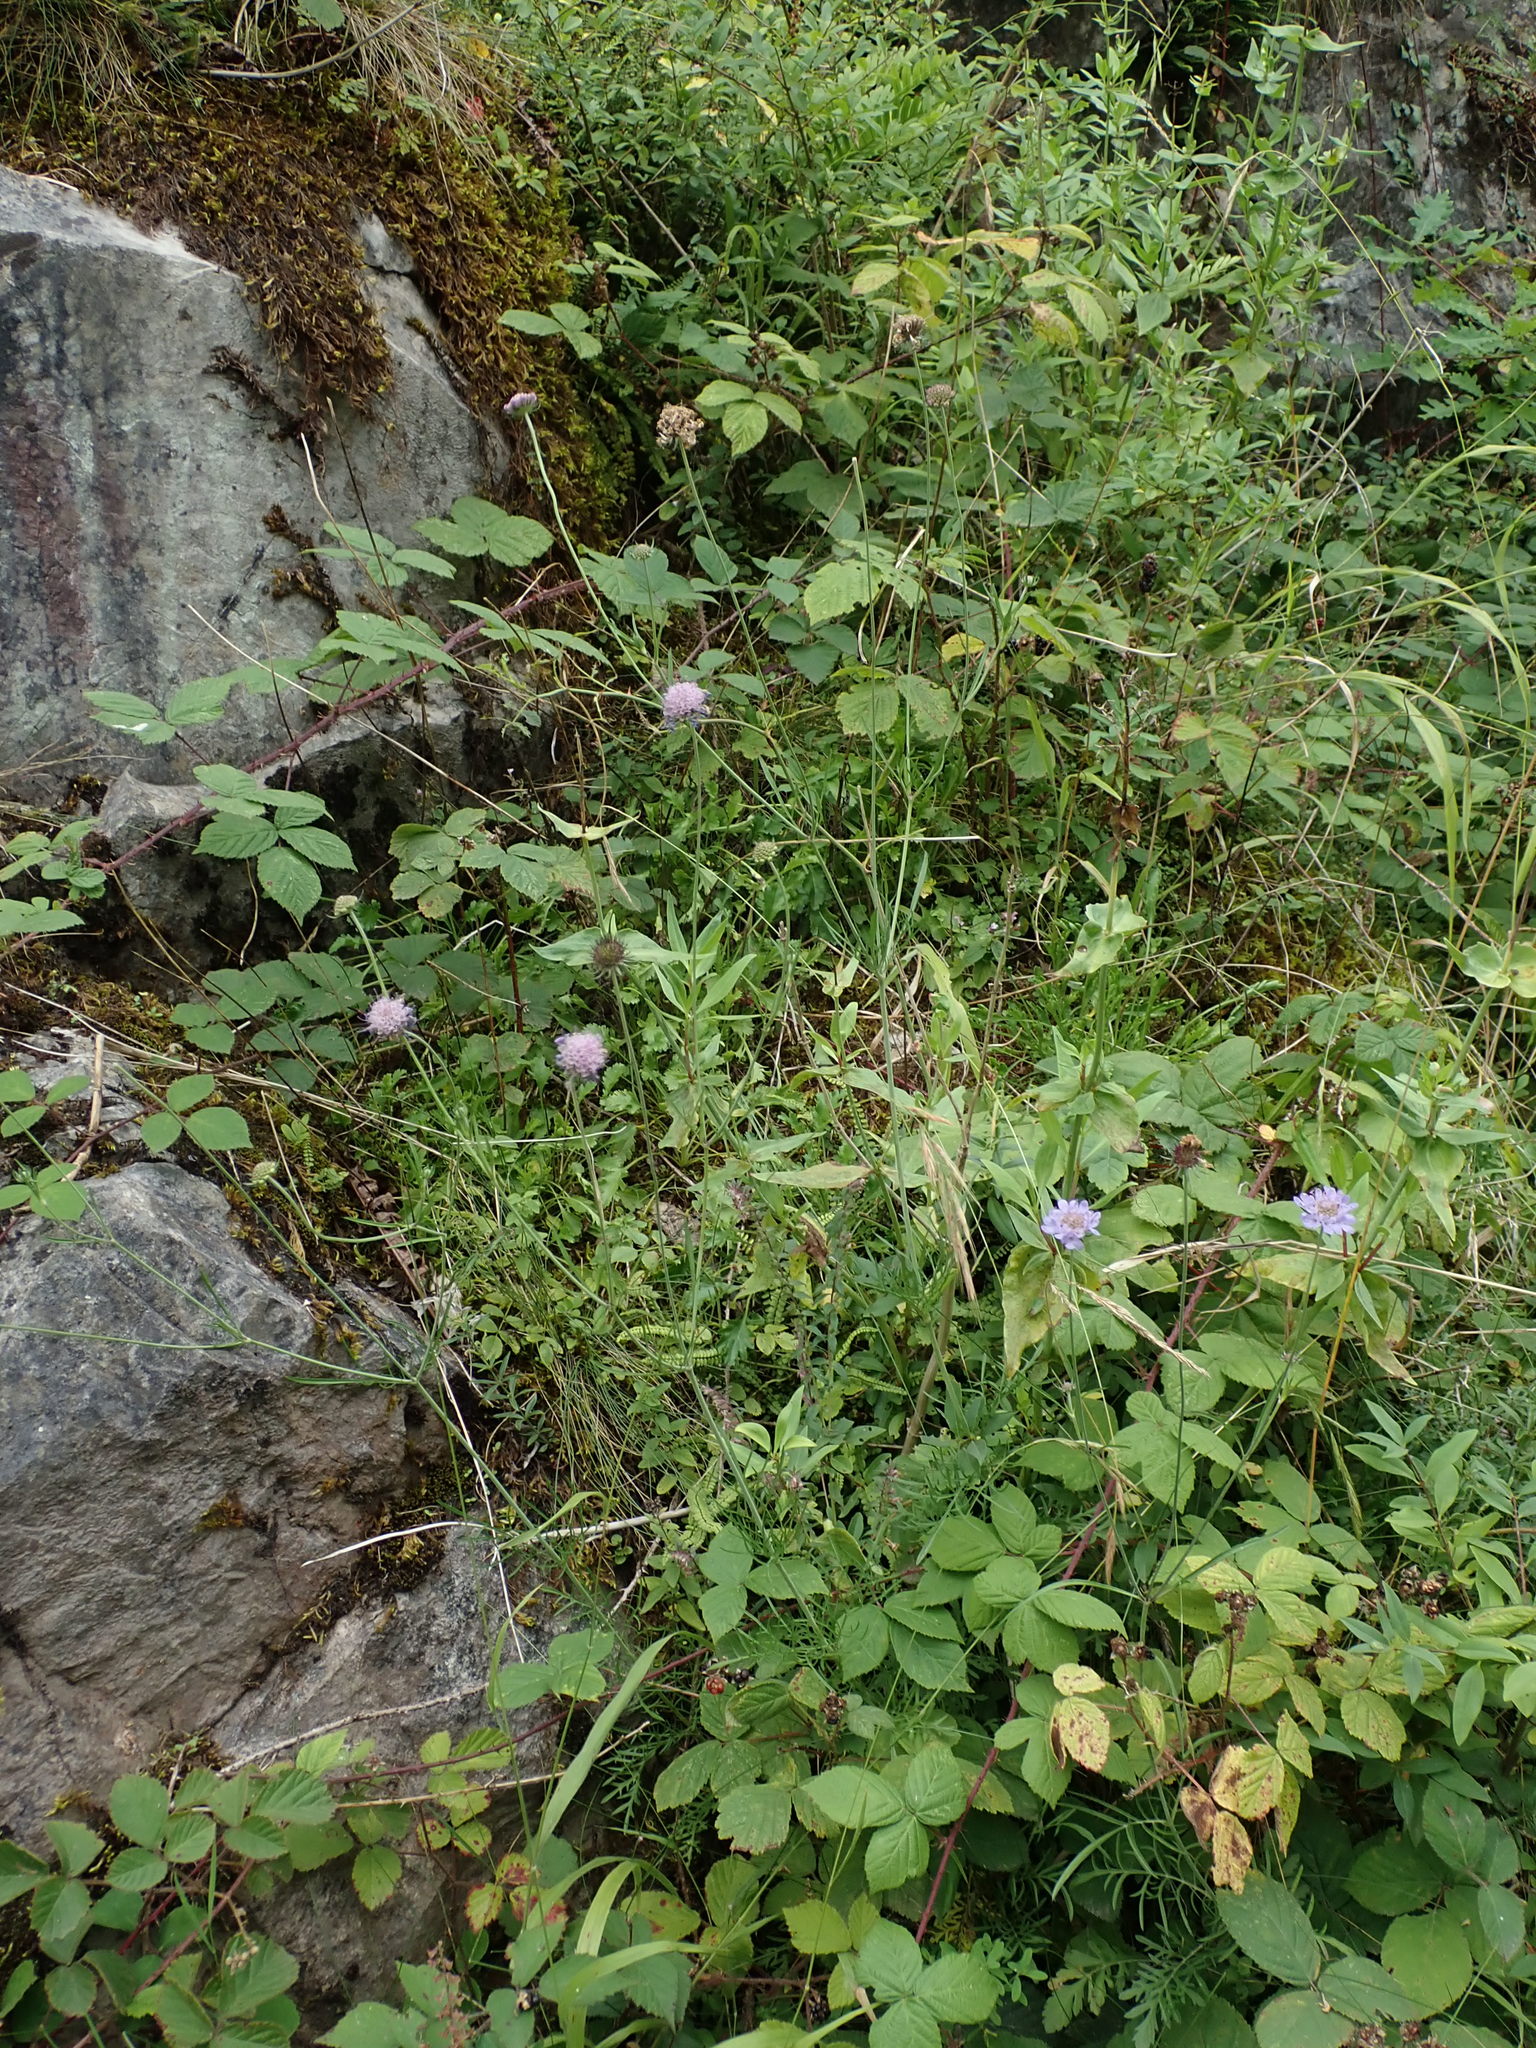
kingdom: Plantae
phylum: Tracheophyta
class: Magnoliopsida
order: Dipsacales
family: Caprifoliaceae
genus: Scabiosa
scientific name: Scabiosa columbaria
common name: Small scabious
